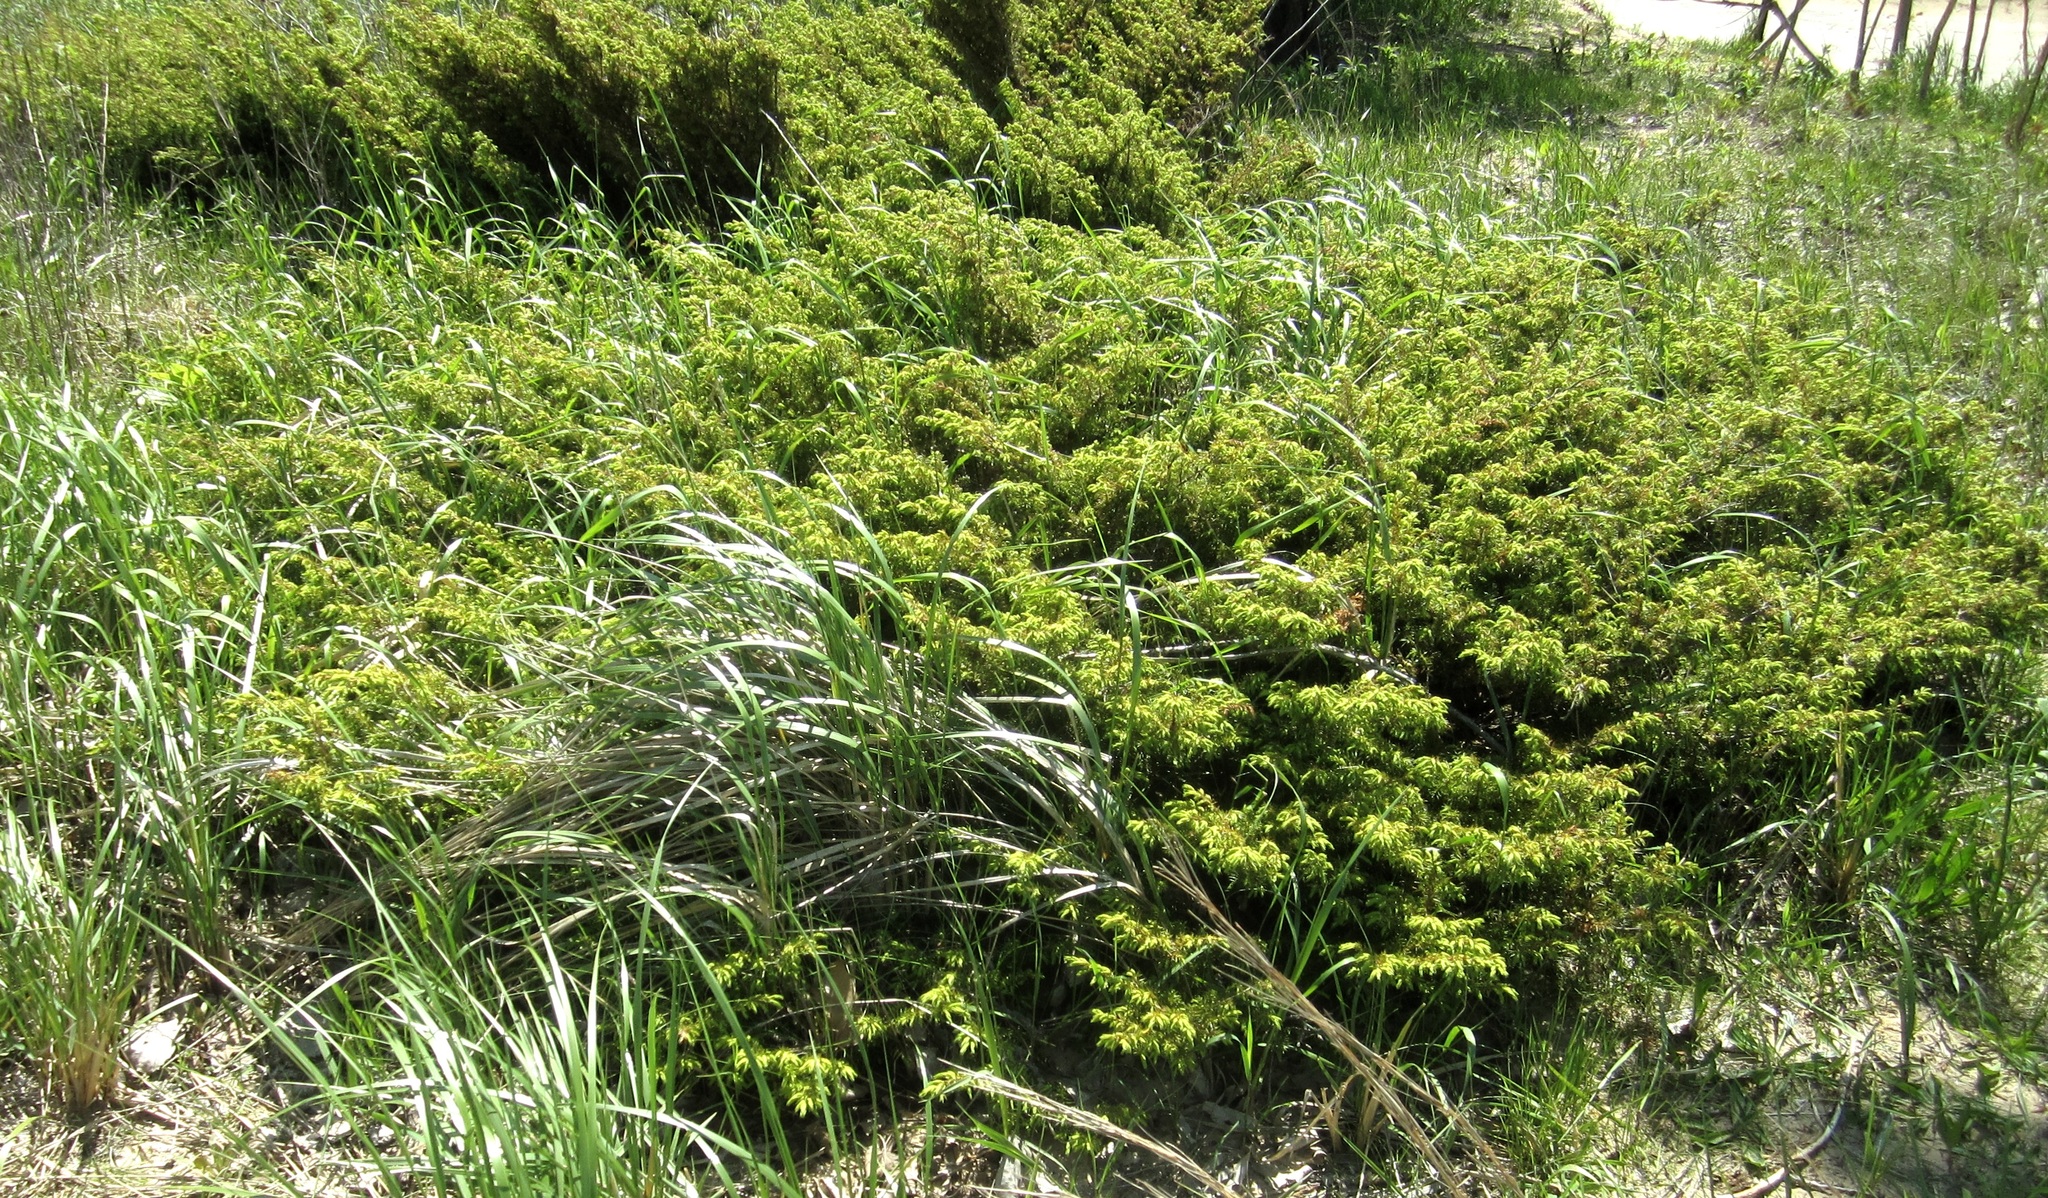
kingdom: Plantae
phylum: Tracheophyta
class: Pinopsida
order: Pinales
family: Cupressaceae
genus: Juniperus
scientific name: Juniperus communis
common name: Common juniper
